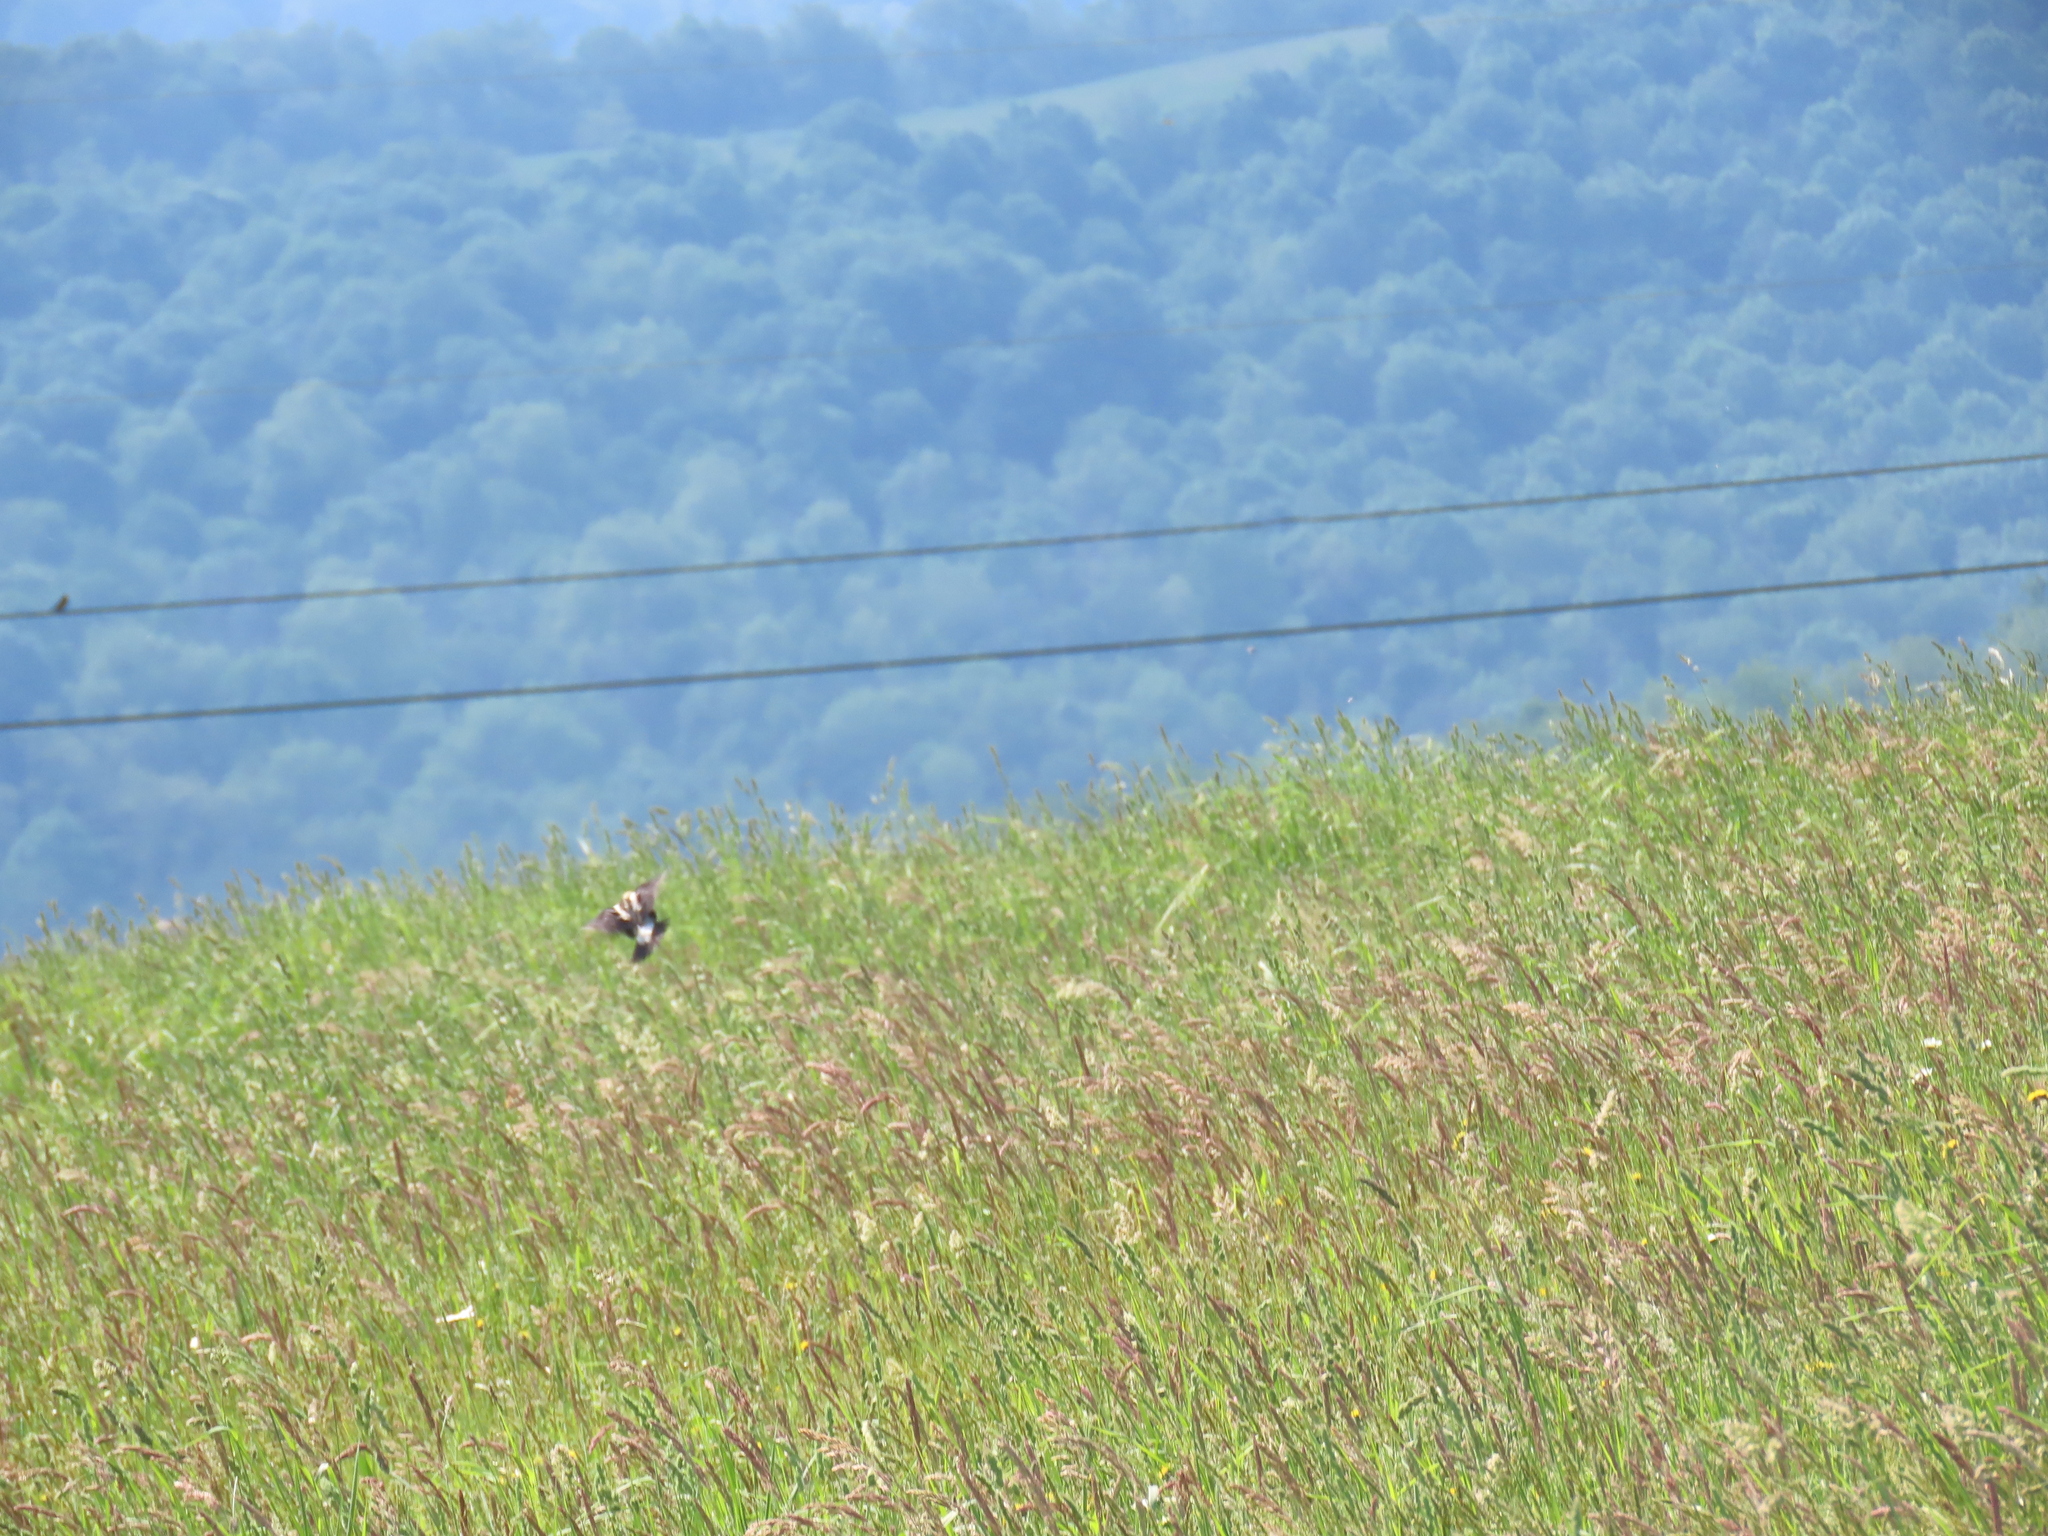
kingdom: Animalia
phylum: Chordata
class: Aves
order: Passeriformes
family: Icteridae
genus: Dolichonyx
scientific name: Dolichonyx oryzivorus
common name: Bobolink
